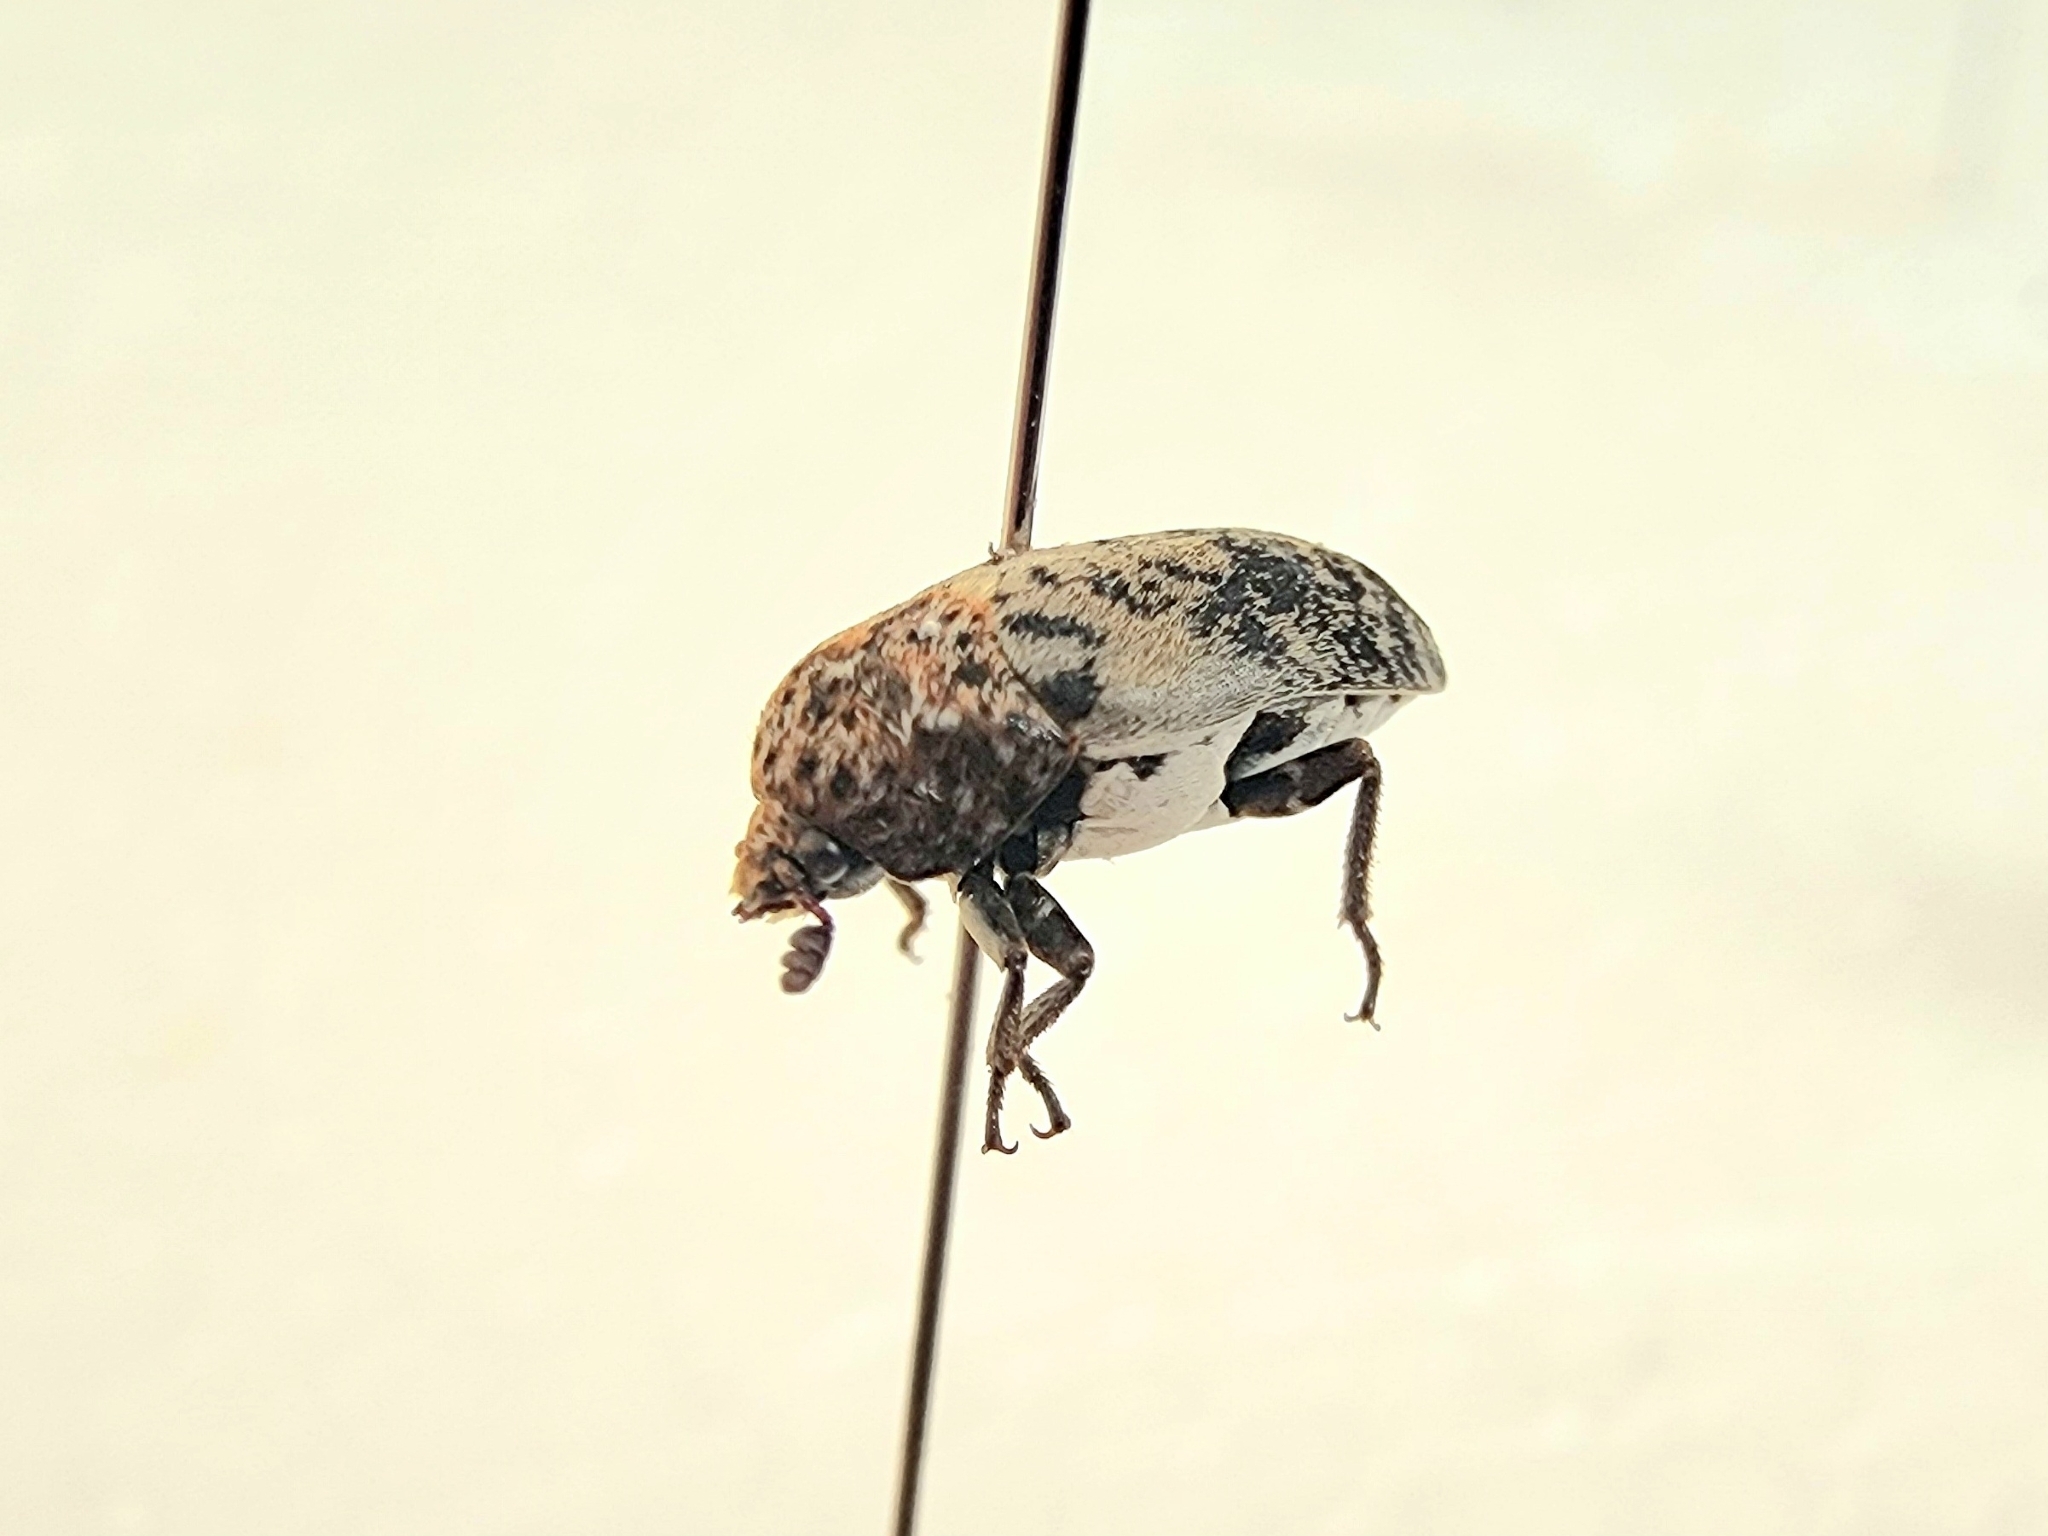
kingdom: Animalia
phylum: Arthropoda
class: Insecta
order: Coleoptera
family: Dermestidae
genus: Dermestes
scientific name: Dermestes caninus
